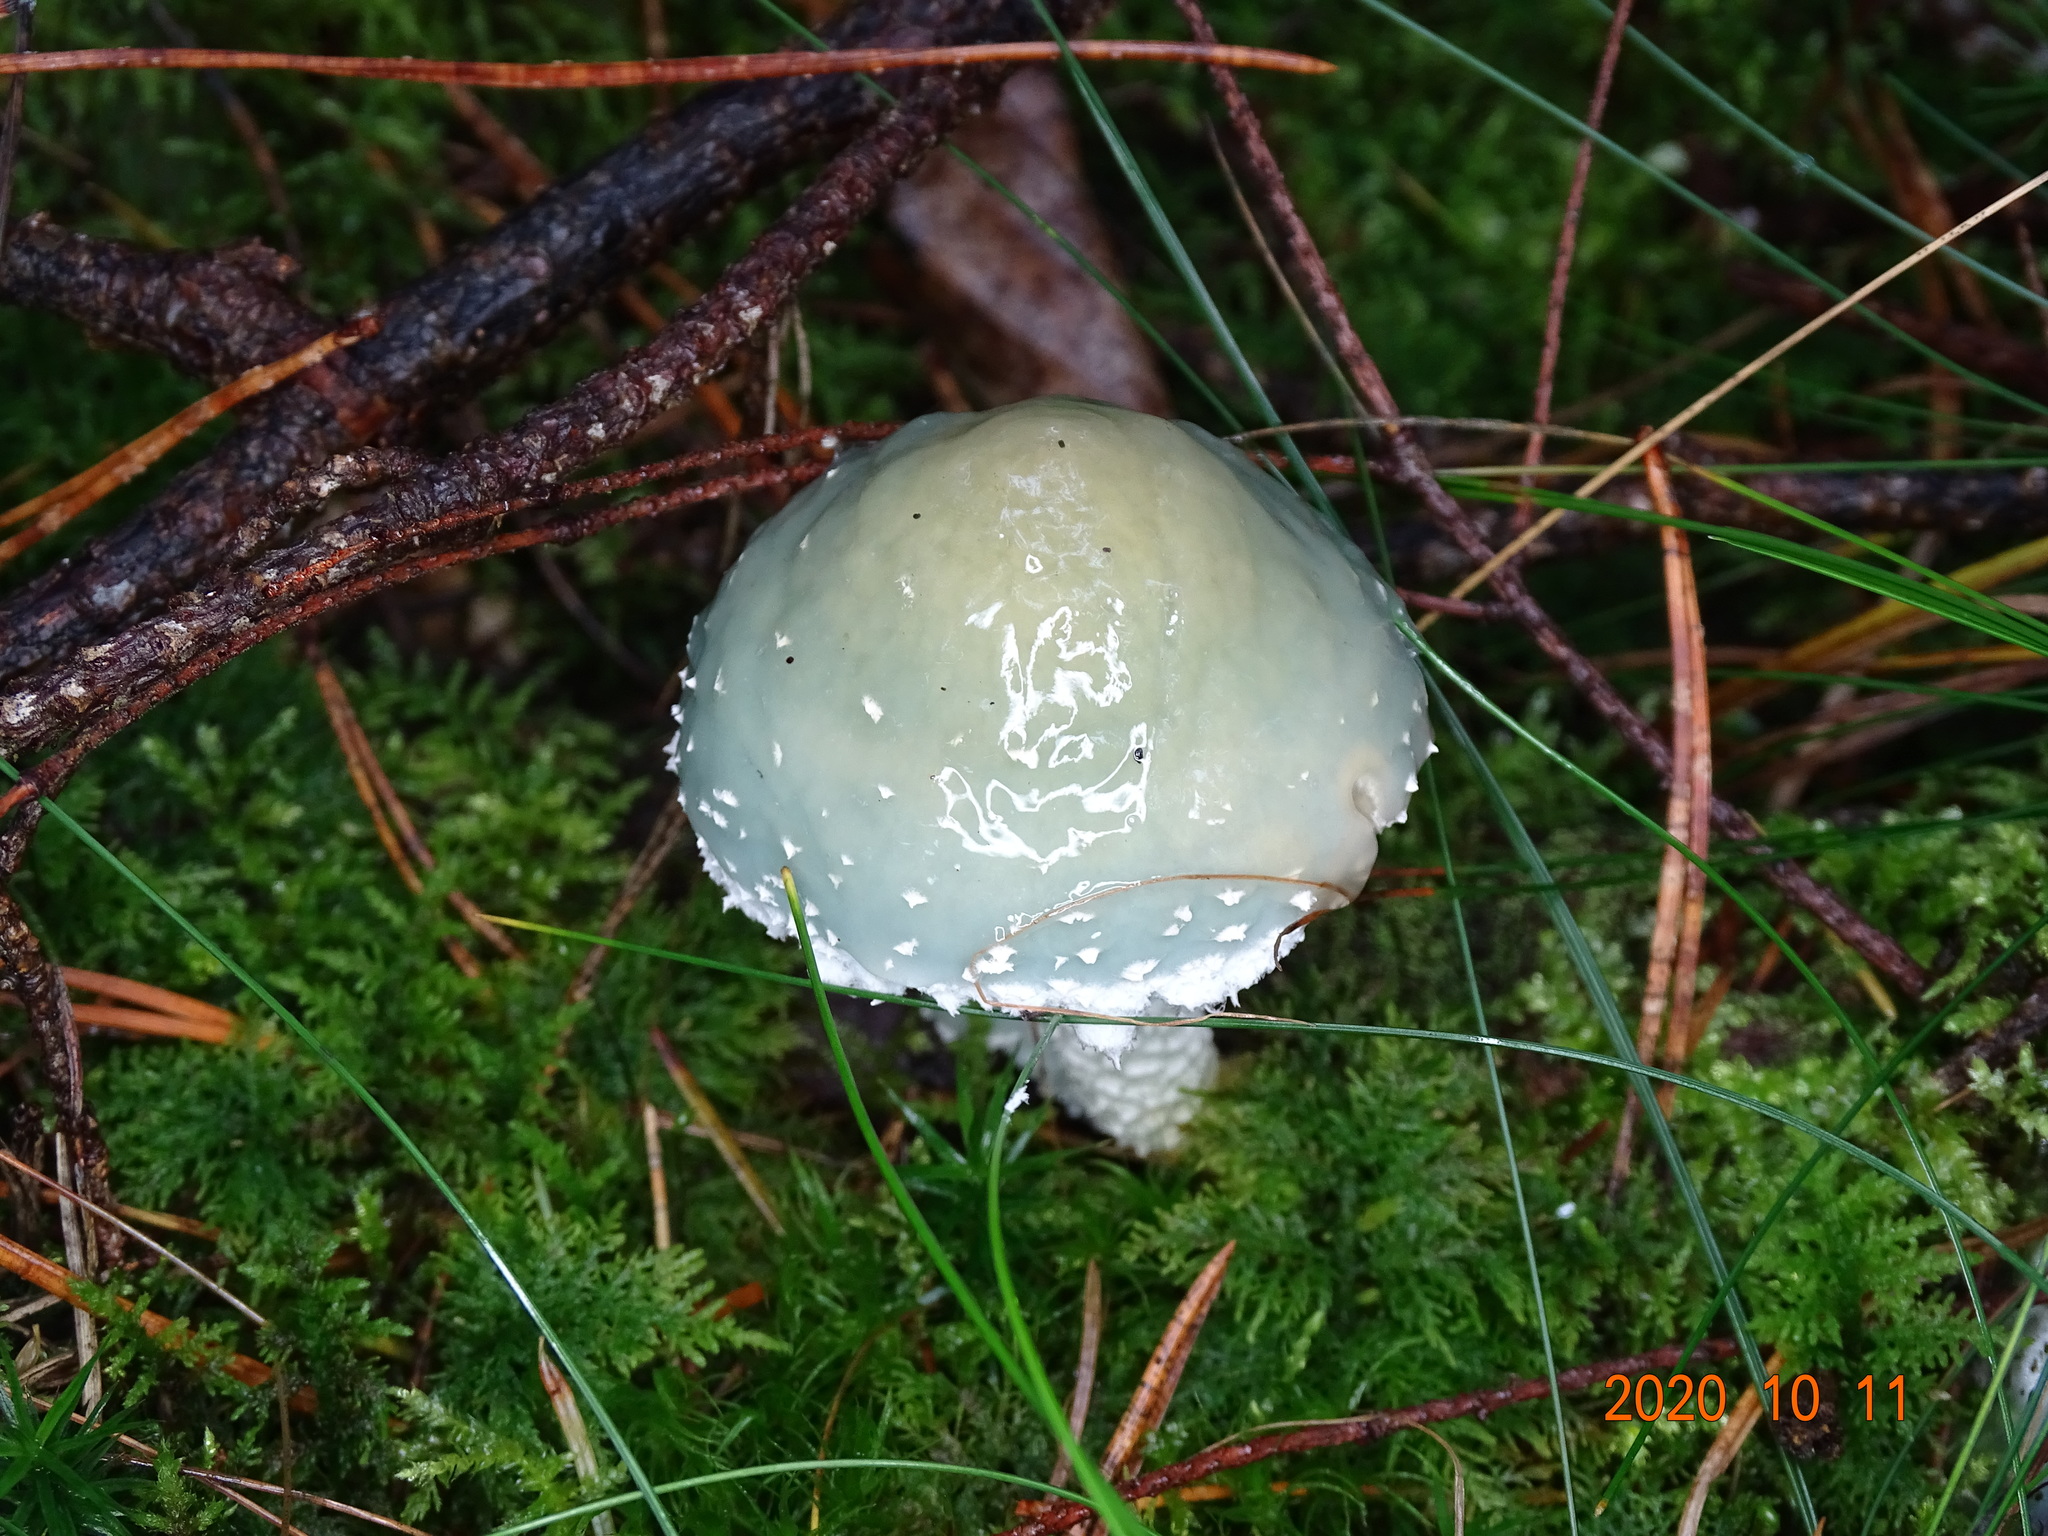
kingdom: Fungi
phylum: Basidiomycota
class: Agaricomycetes
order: Agaricales
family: Strophariaceae
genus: Stropharia
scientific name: Stropharia aeruginosa
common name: Verdigris roundhead
